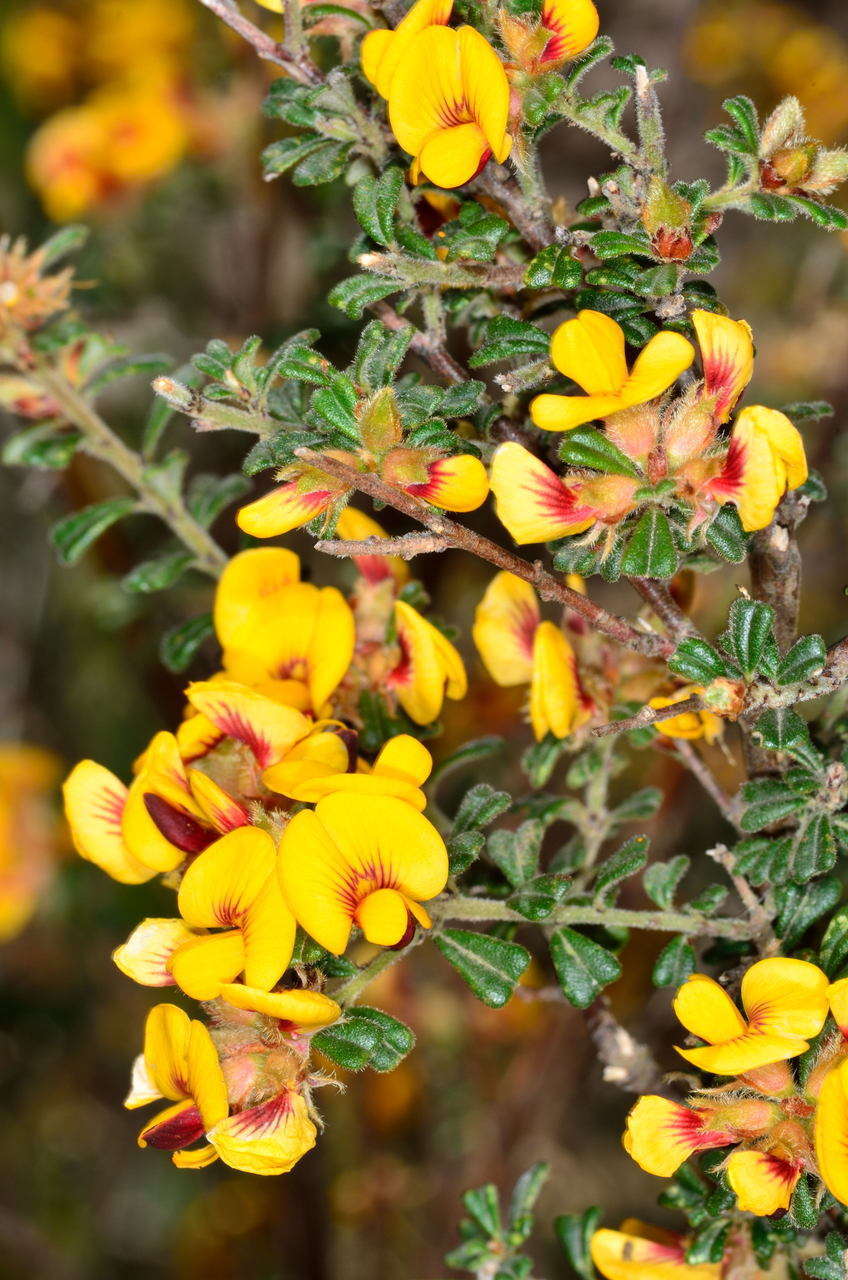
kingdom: Plantae
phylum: Tracheophyta
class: Magnoliopsida
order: Fabales
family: Fabaceae
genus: Pultenaea
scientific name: Pultenaea scabra
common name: Rough bush-pea
